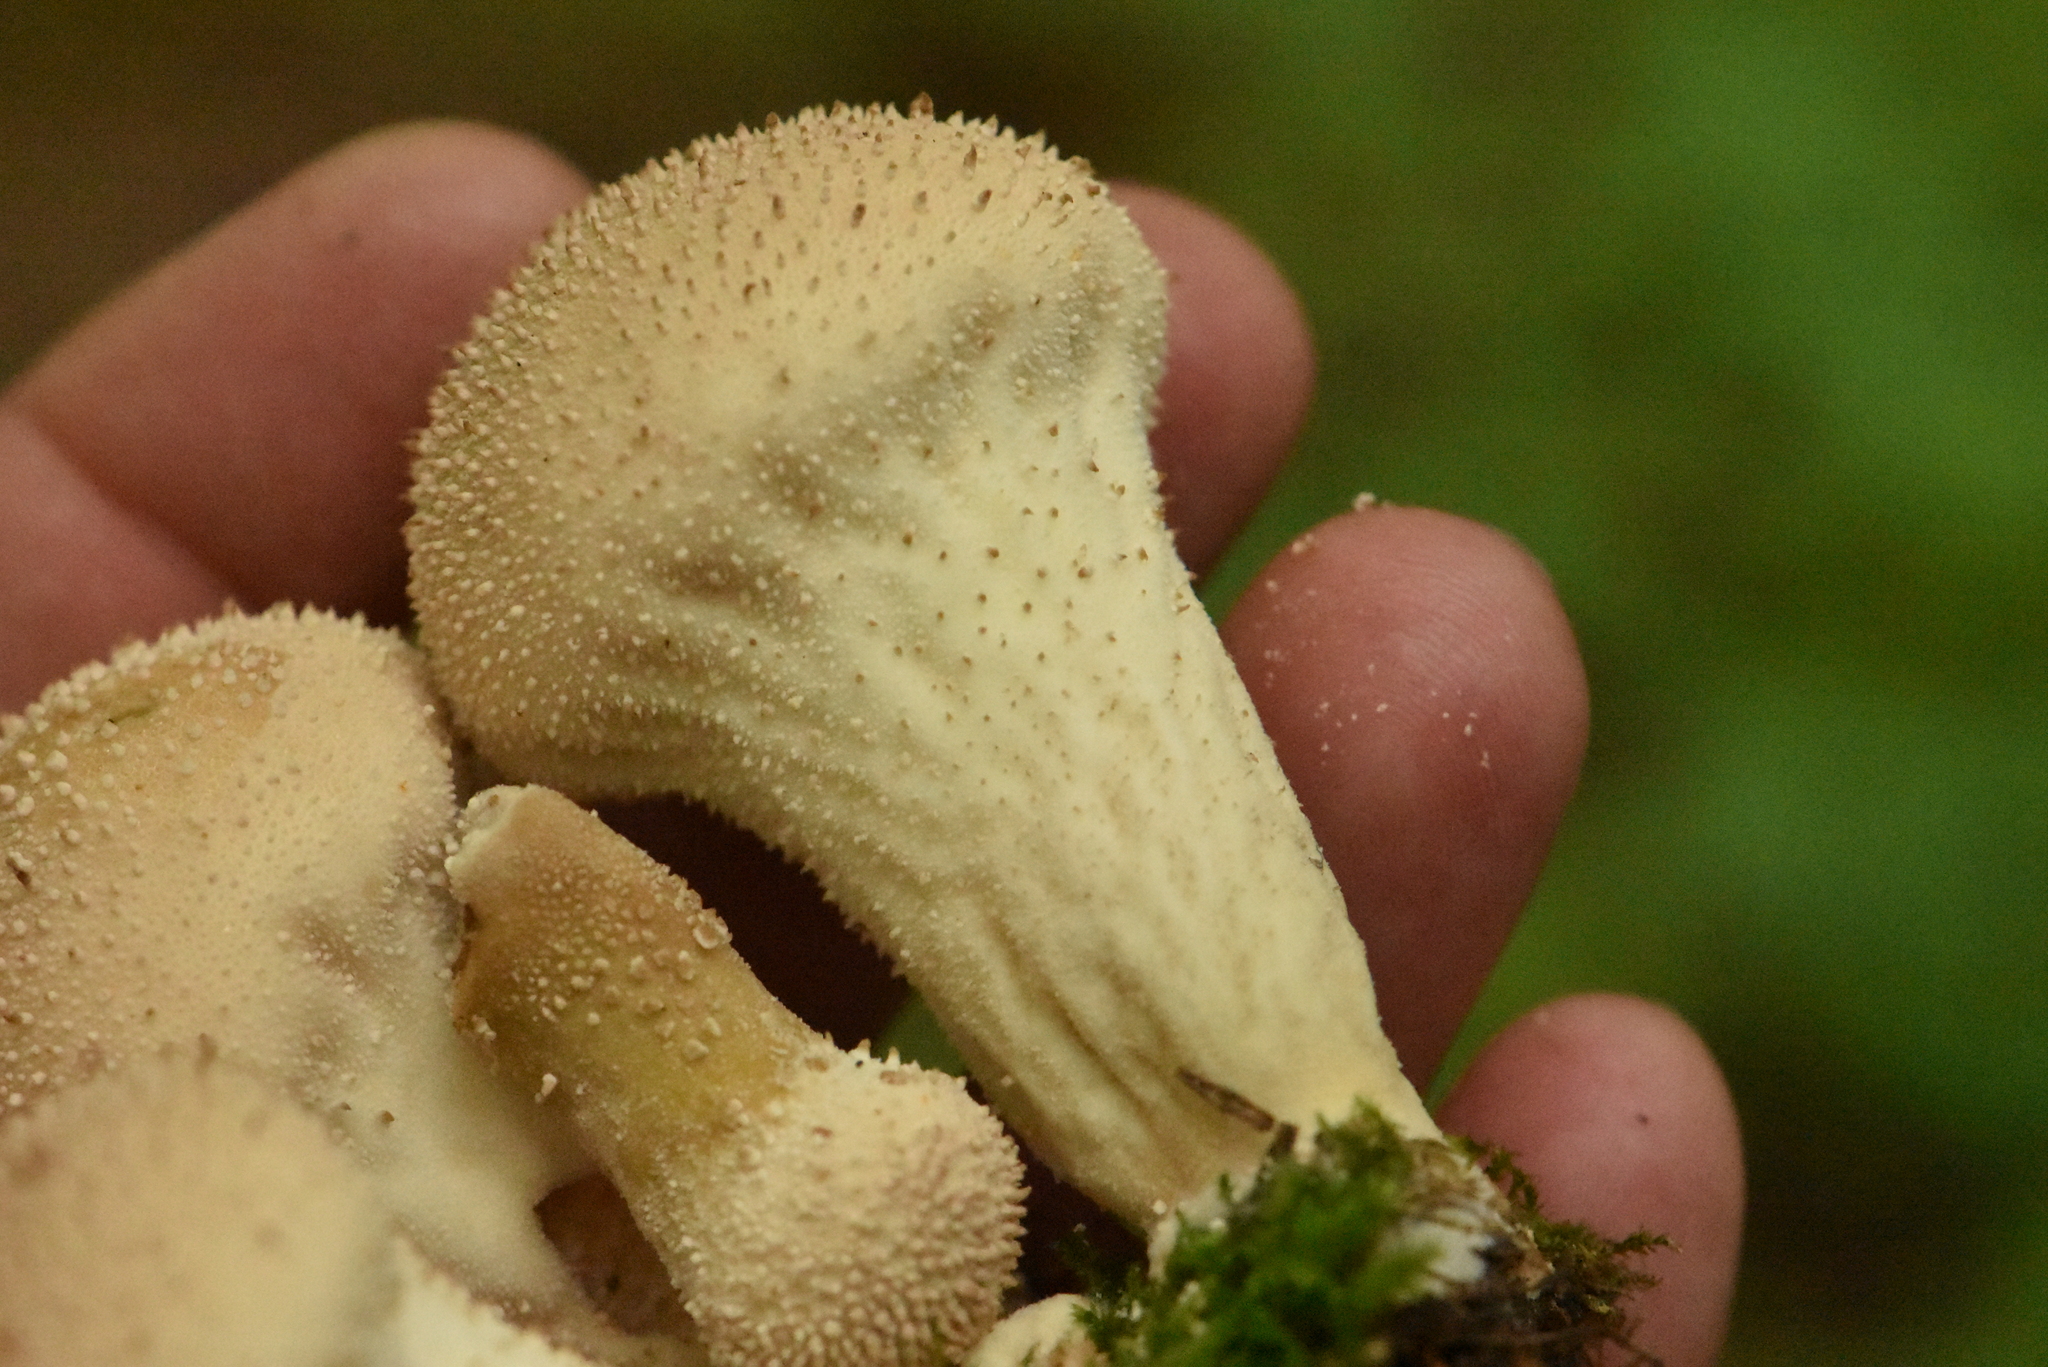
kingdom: Fungi
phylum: Basidiomycota
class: Agaricomycetes
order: Agaricales
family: Lycoperdaceae
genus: Lycoperdon
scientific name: Lycoperdon perlatum
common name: Common puffball
